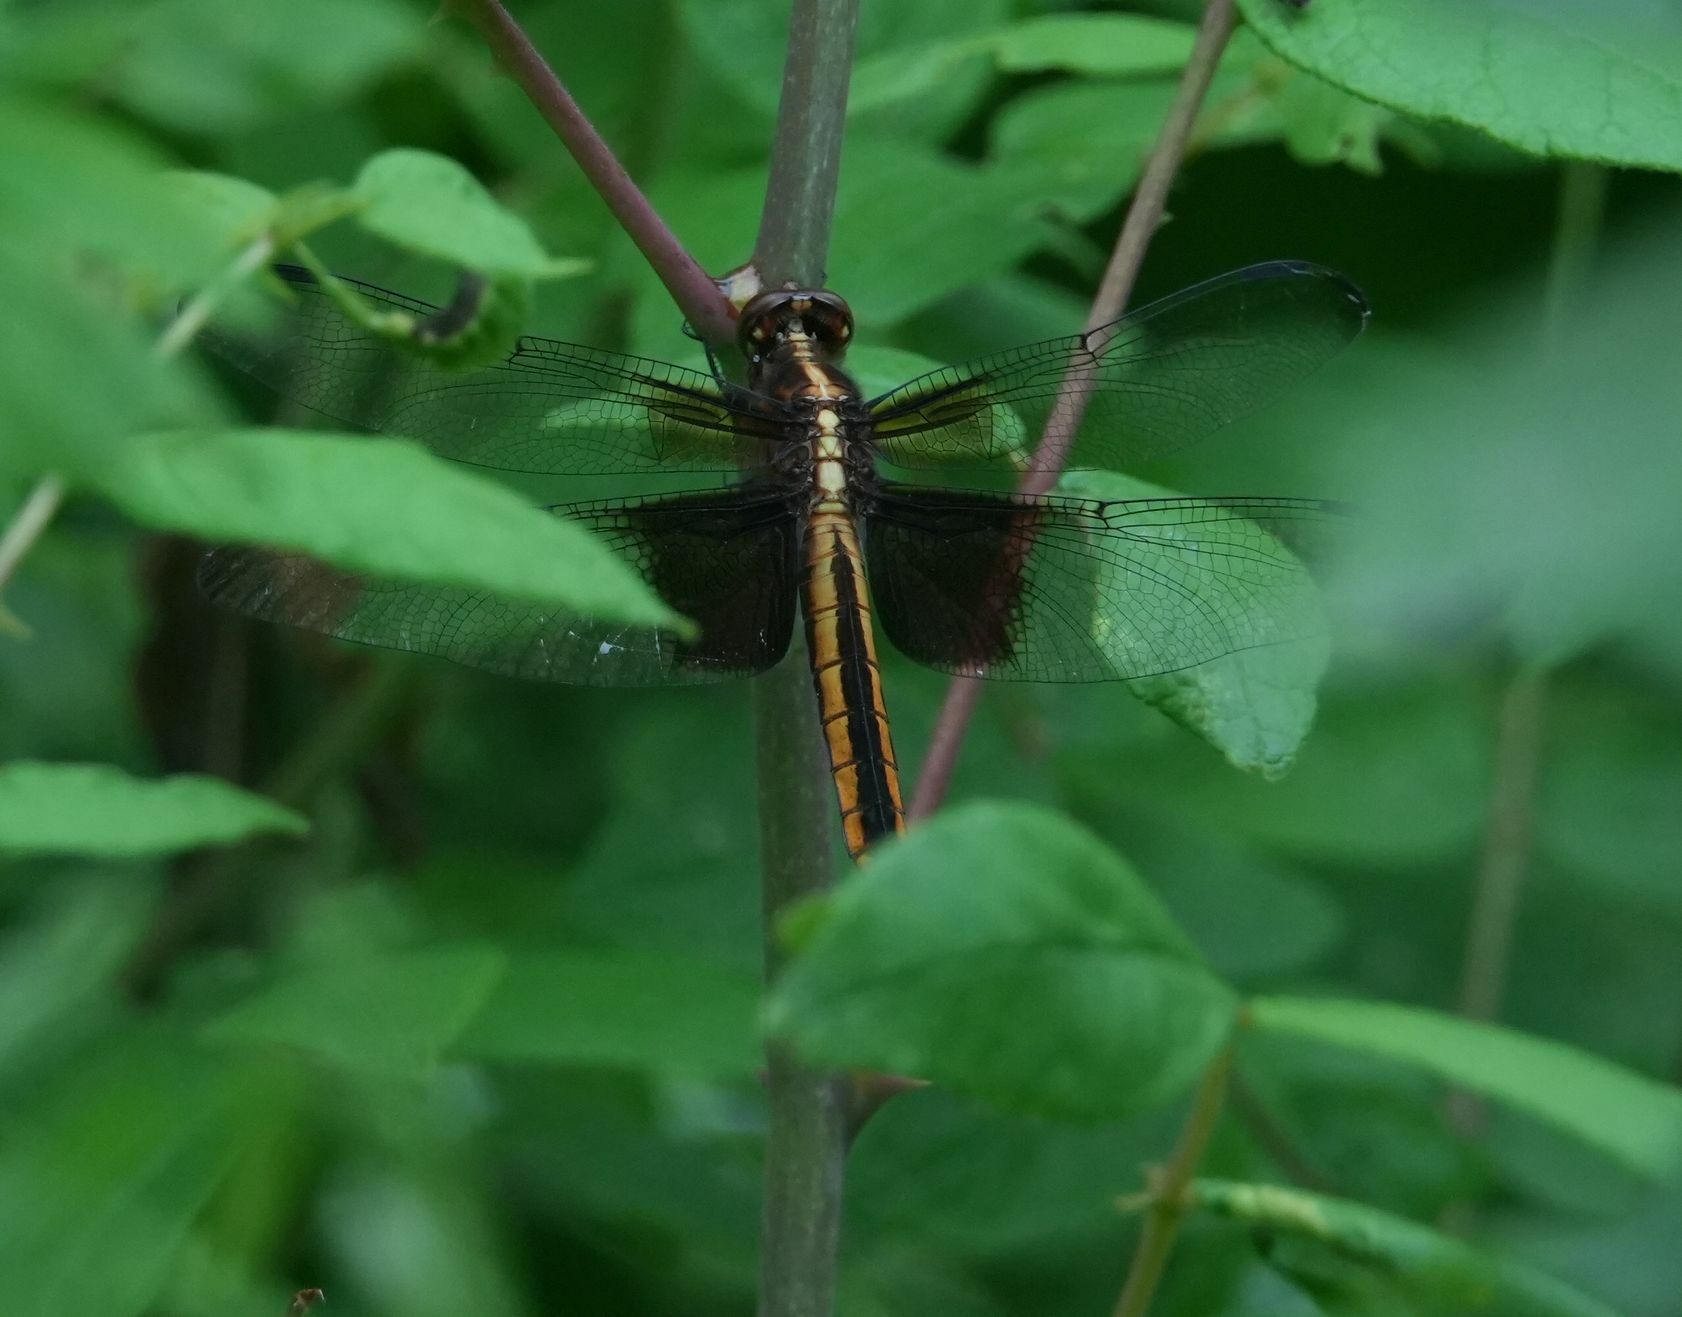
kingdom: Animalia
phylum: Arthropoda
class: Insecta
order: Odonata
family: Libellulidae
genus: Libellula
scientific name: Libellula luctuosa
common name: Widow skimmer
